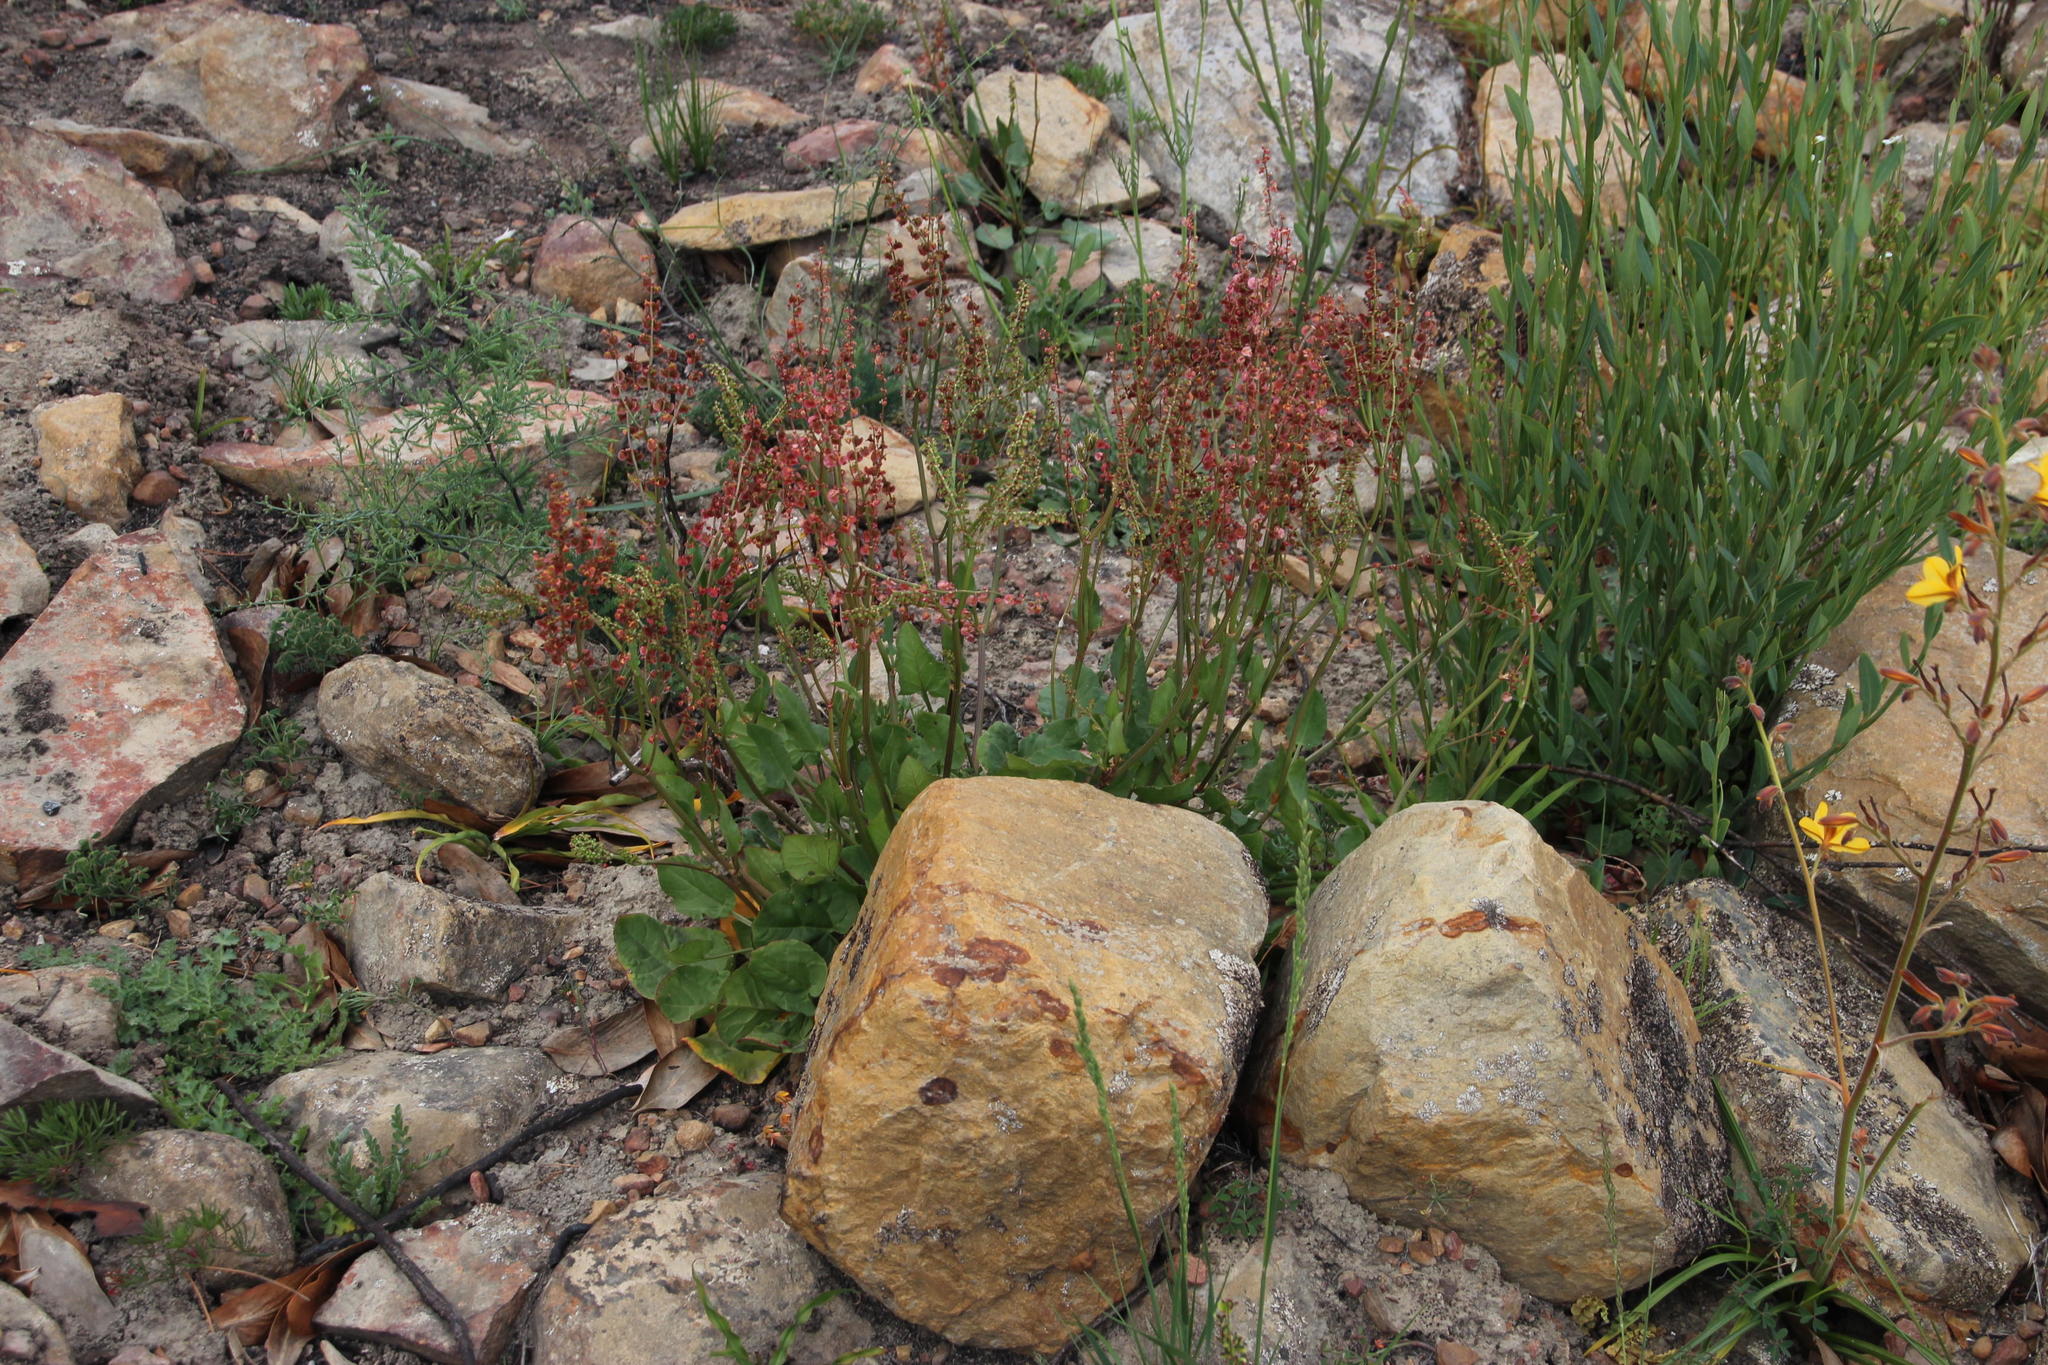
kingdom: Plantae
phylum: Tracheophyta
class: Magnoliopsida
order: Caryophyllales
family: Polygonaceae
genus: Rumex
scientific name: Rumex acetosella
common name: Common sheep sorrel
